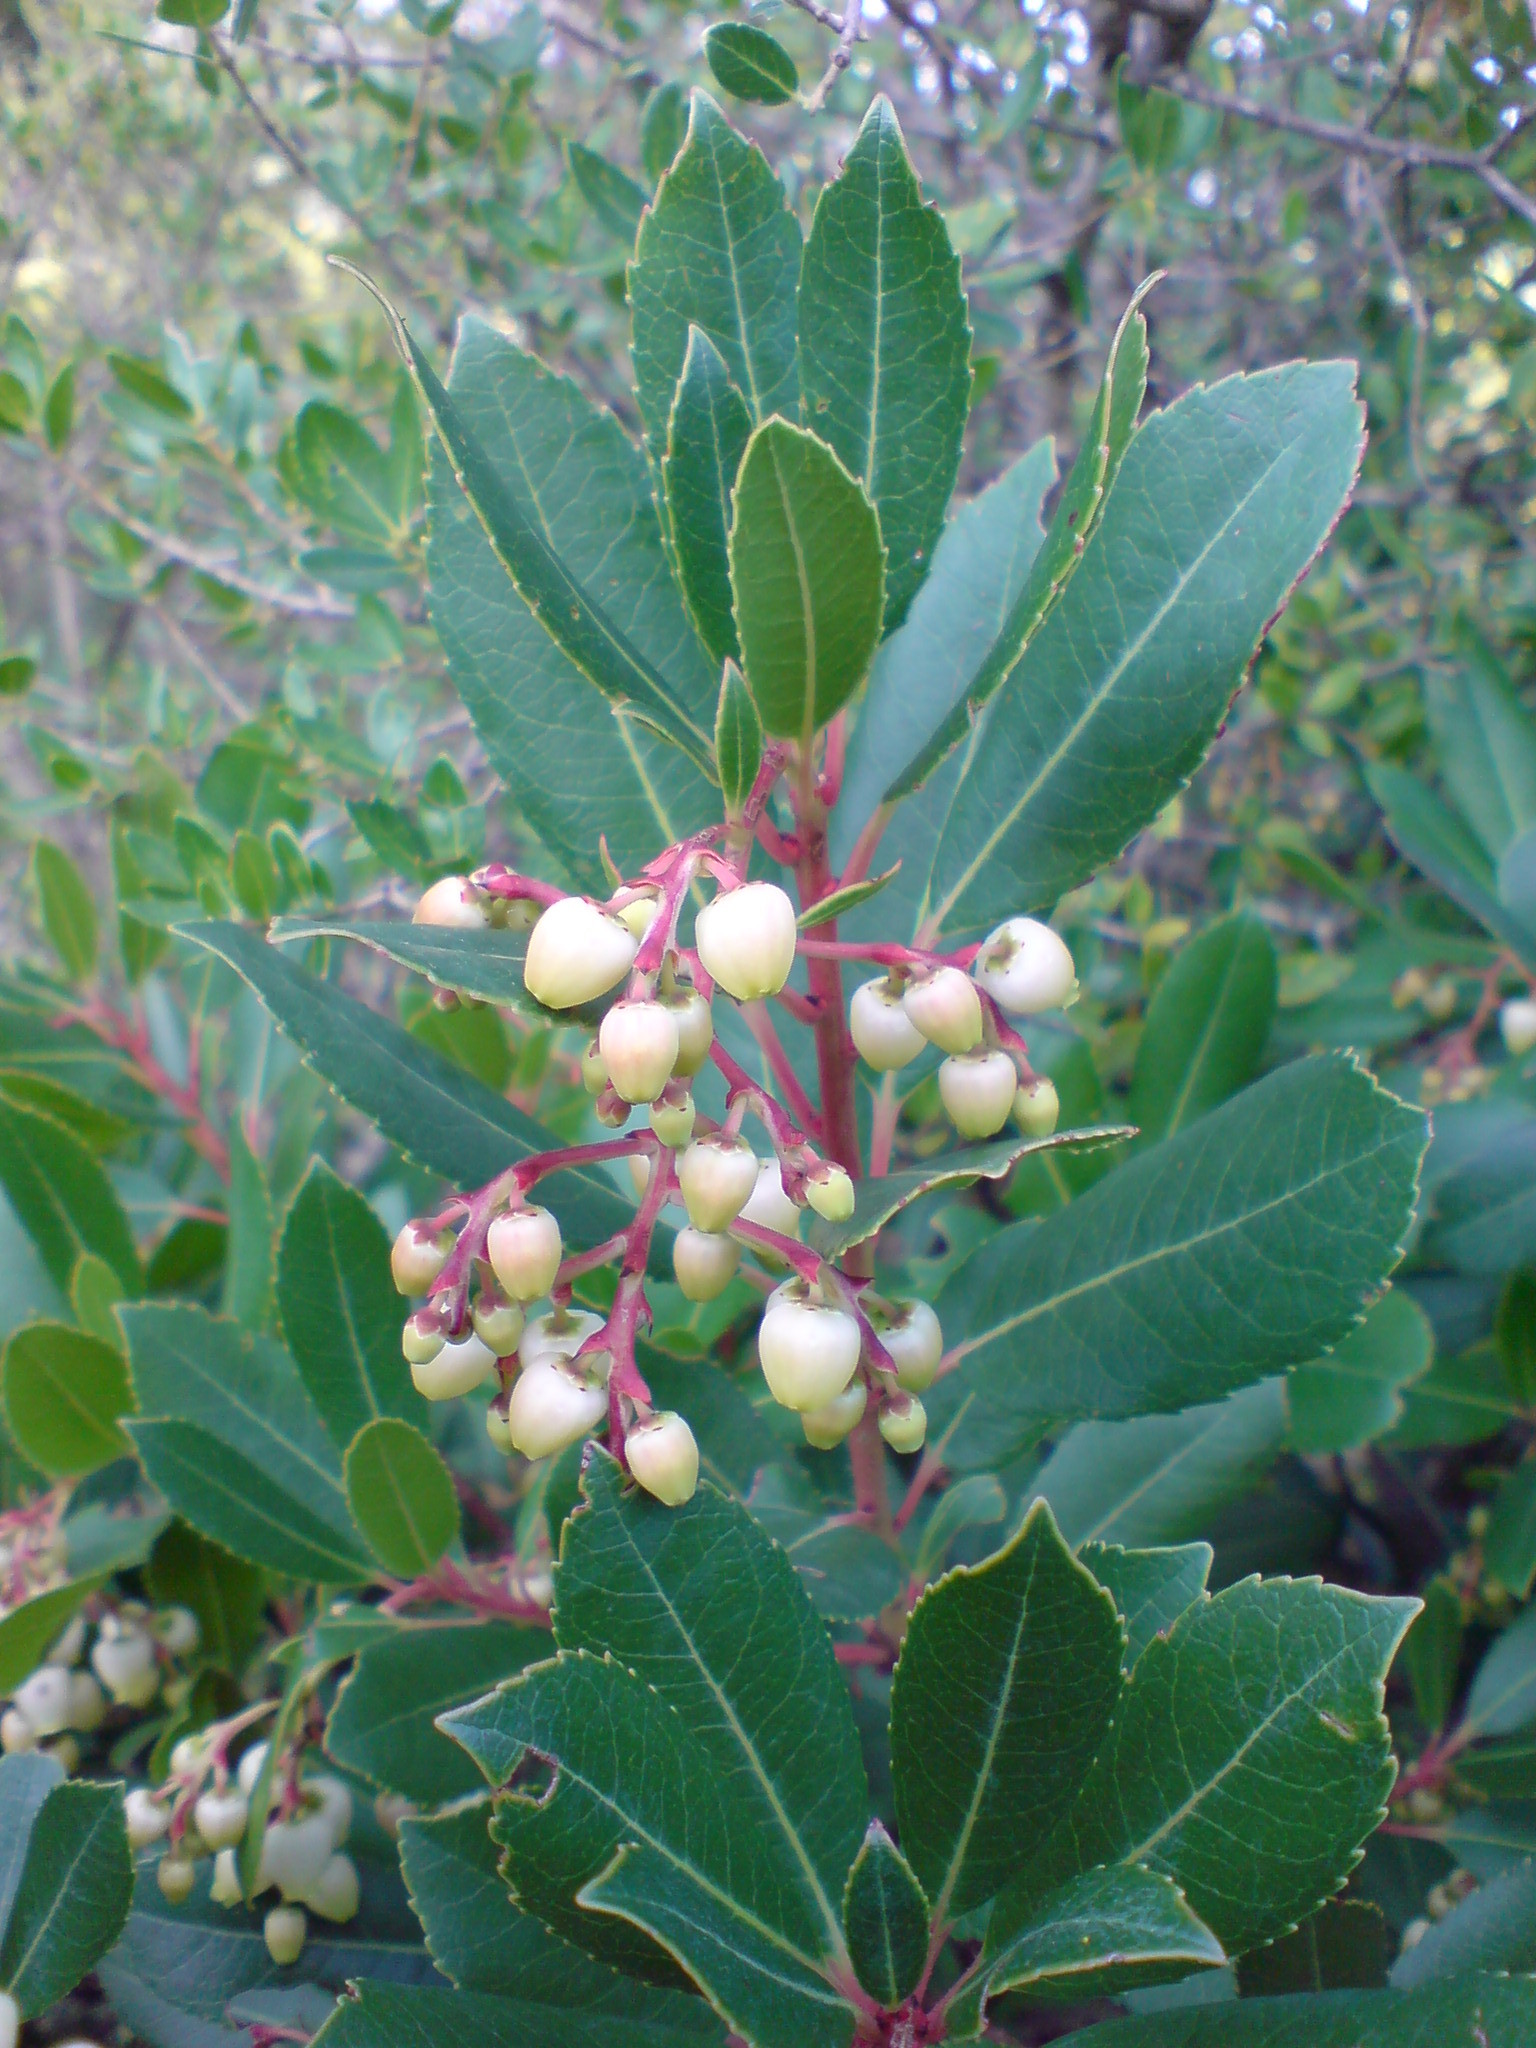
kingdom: Plantae
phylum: Tracheophyta
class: Magnoliopsida
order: Ericales
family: Ericaceae
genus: Arbutus
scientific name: Arbutus unedo
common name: Strawberry-tree
